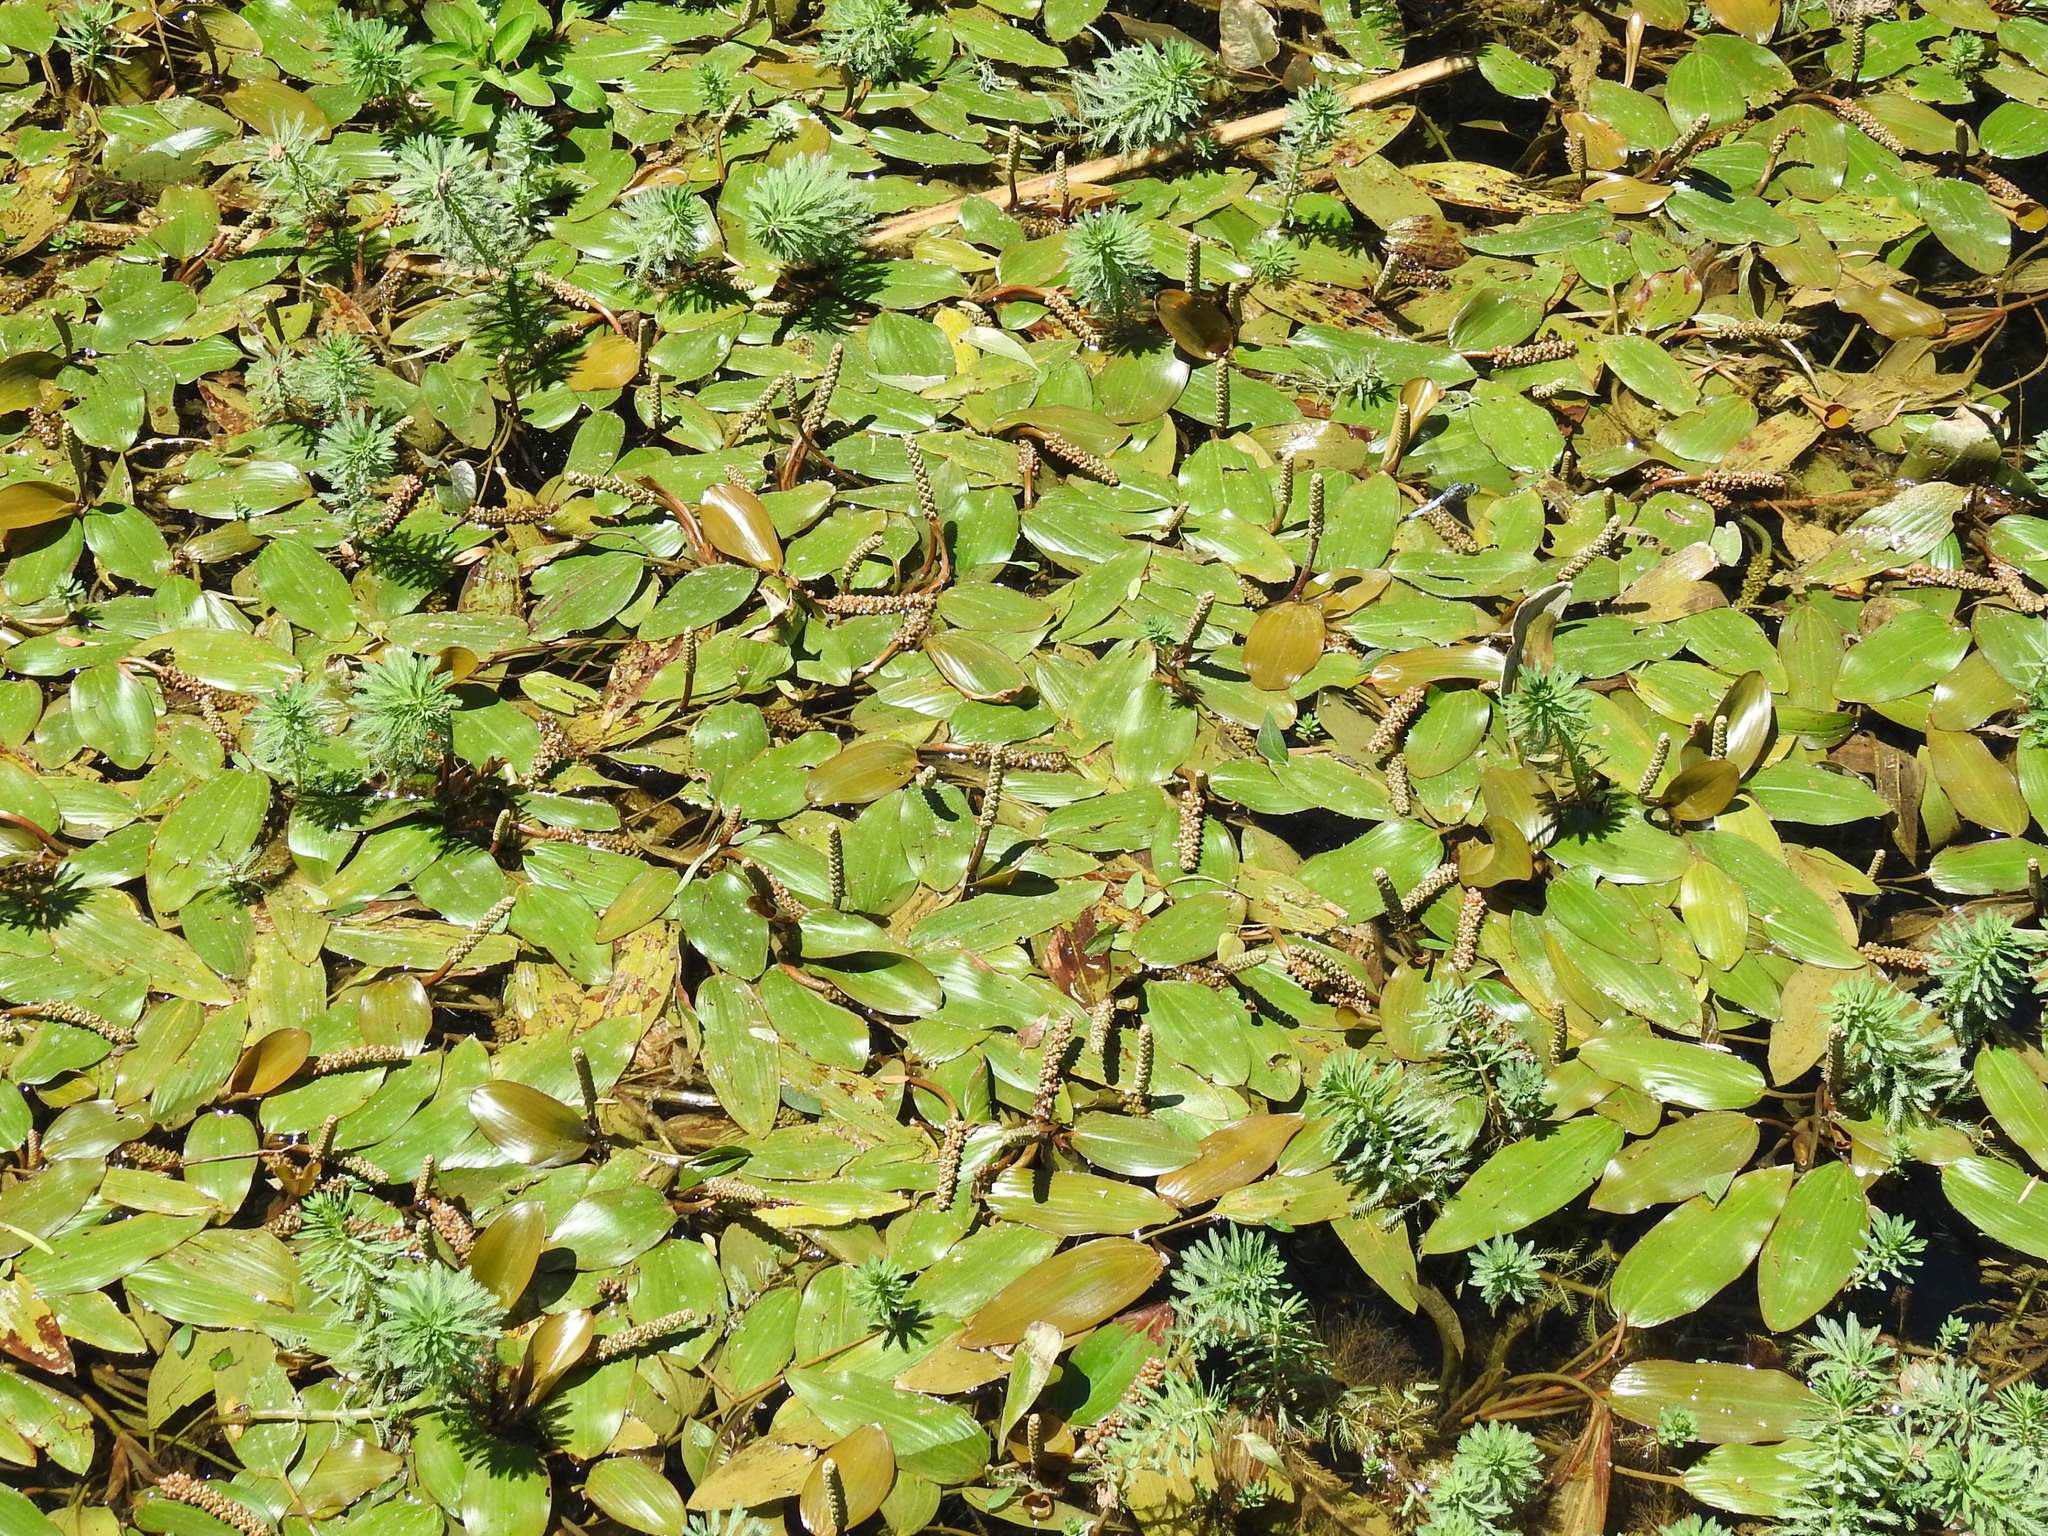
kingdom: Plantae
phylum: Tracheophyta
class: Liliopsida
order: Alismatales
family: Potamogetonaceae
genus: Potamogeton
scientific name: Potamogeton nodosus
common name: Loddon pondweed
